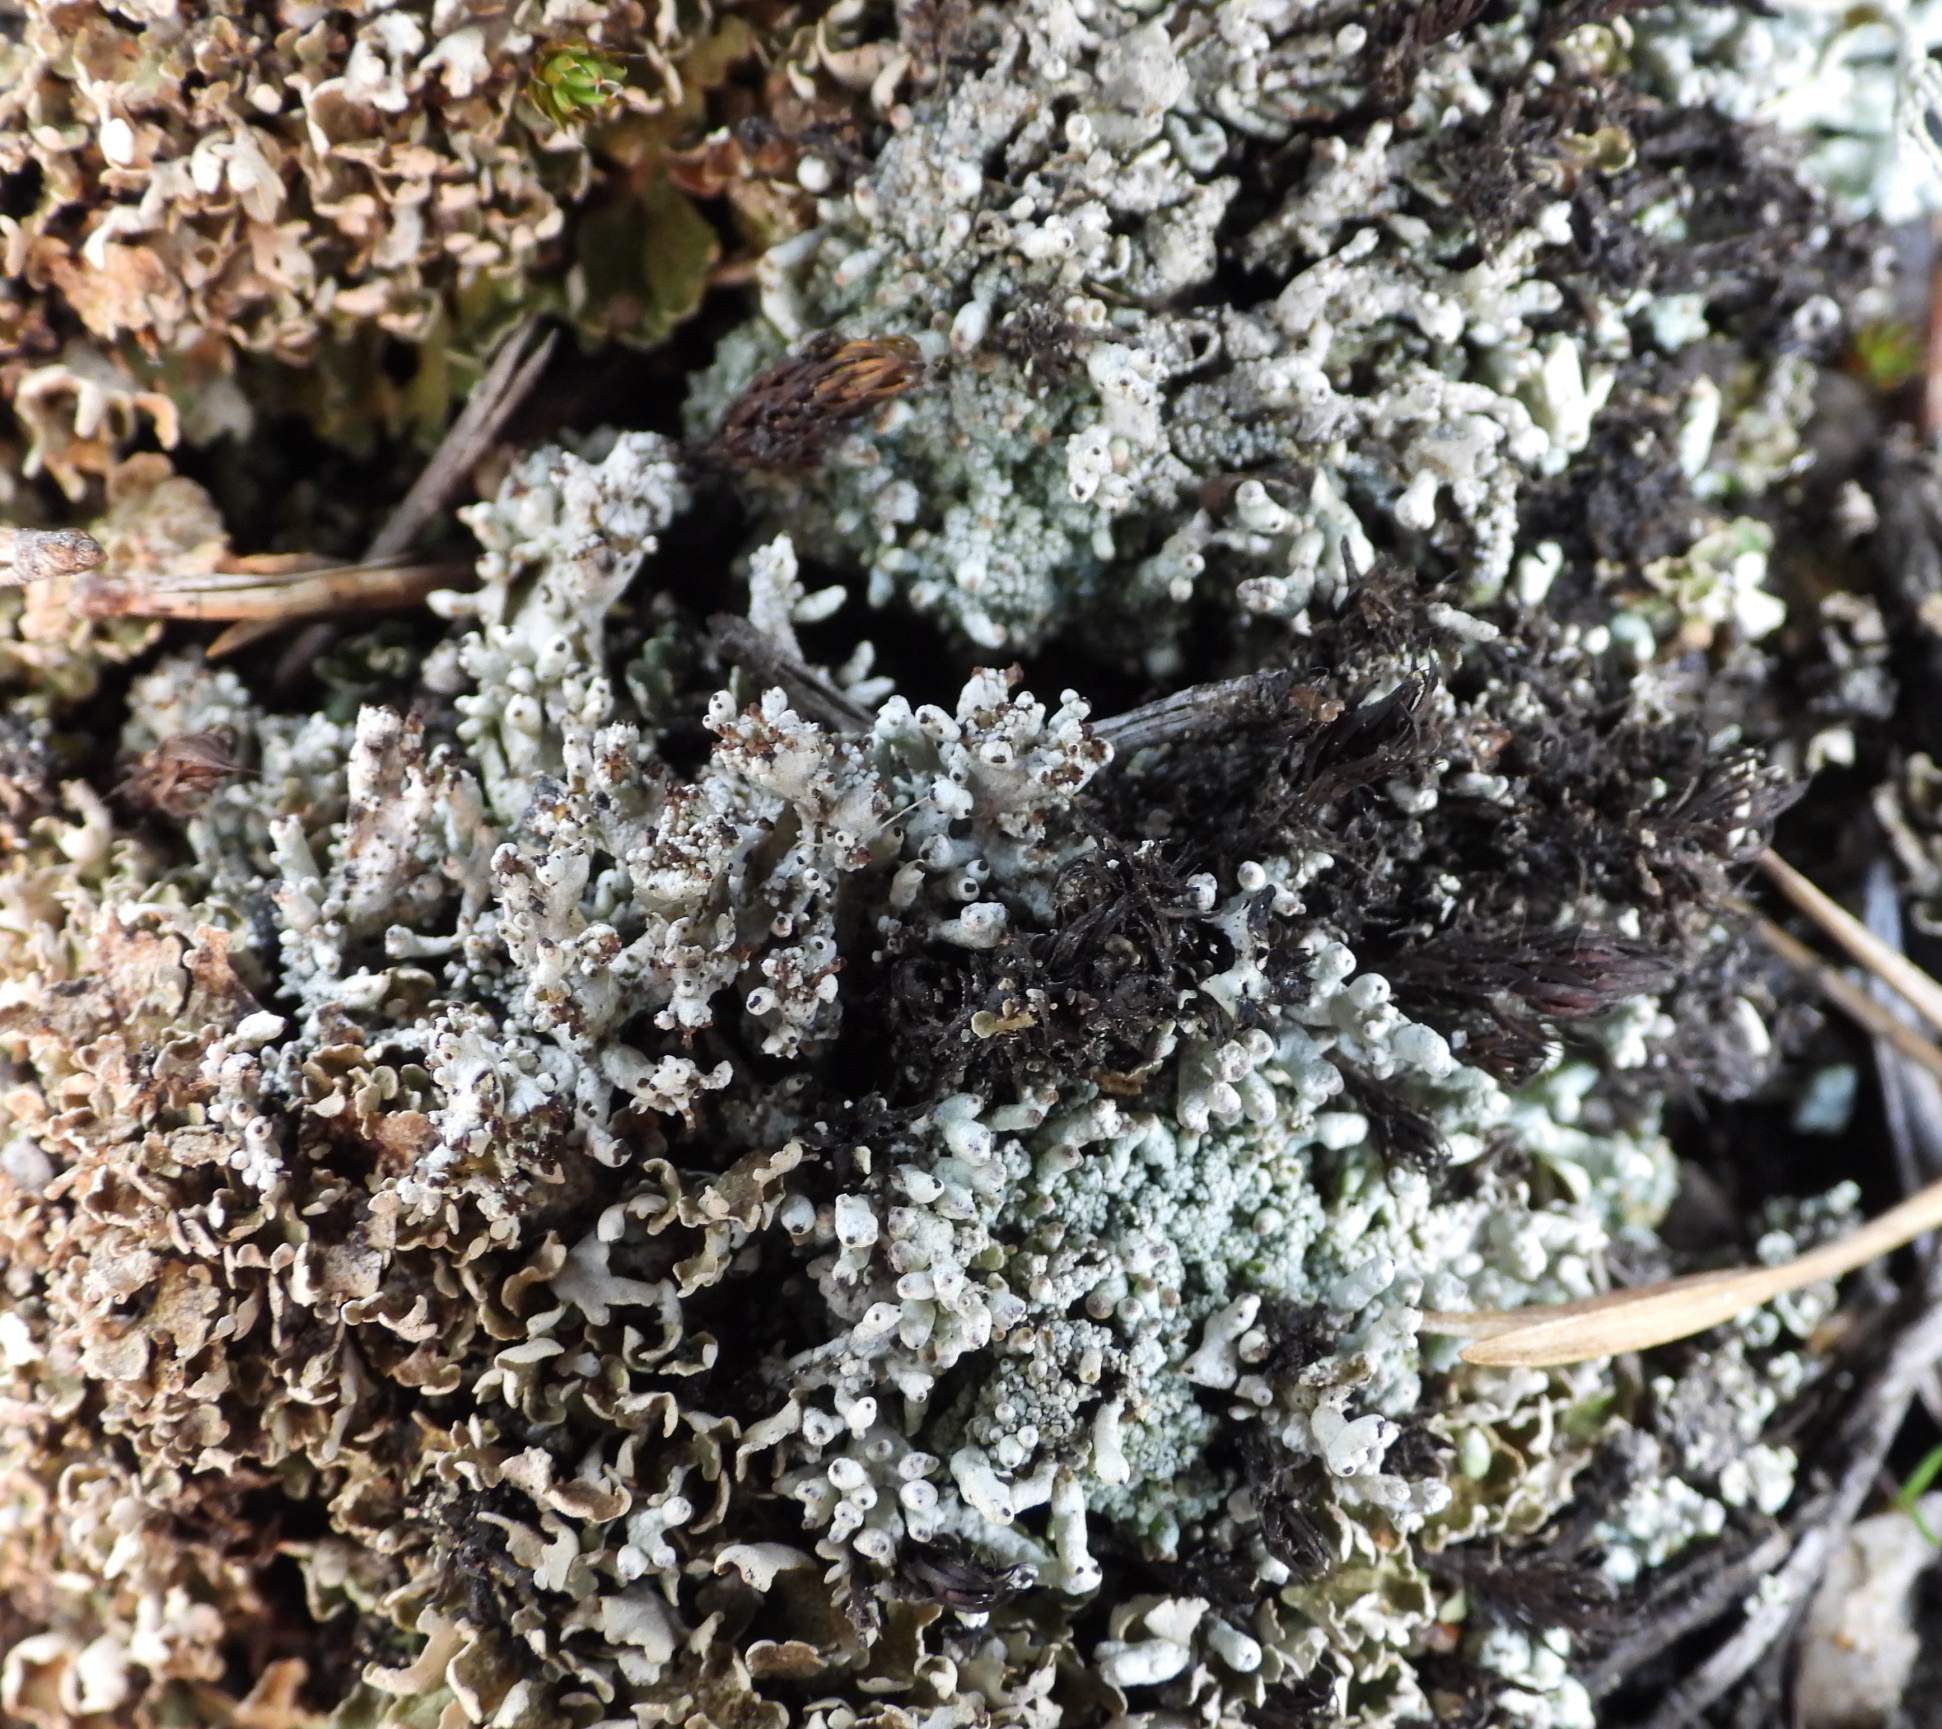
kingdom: Fungi
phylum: Ascomycota
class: Lecanoromycetes
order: Lecanorales
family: Cladoniaceae
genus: Pycnothelia
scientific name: Pycnothelia papillaria
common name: Nipple lichen
